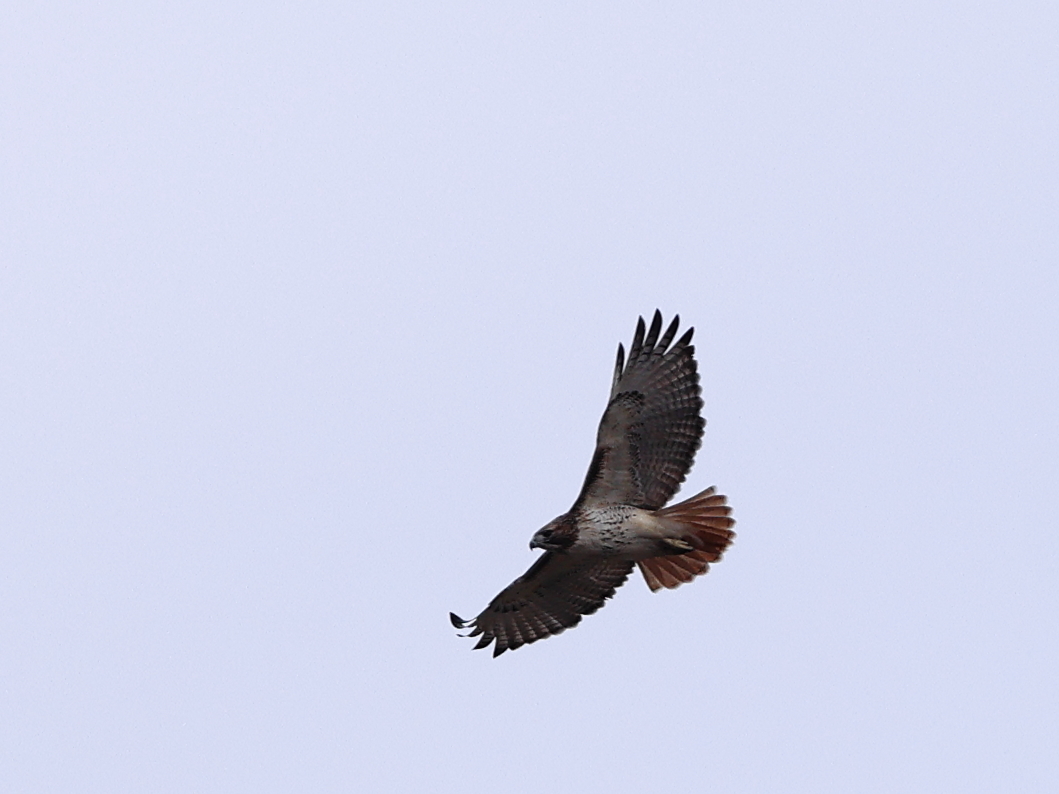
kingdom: Animalia
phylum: Chordata
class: Aves
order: Accipitriformes
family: Accipitridae
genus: Buteo
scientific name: Buteo jamaicensis
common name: Red-tailed hawk
